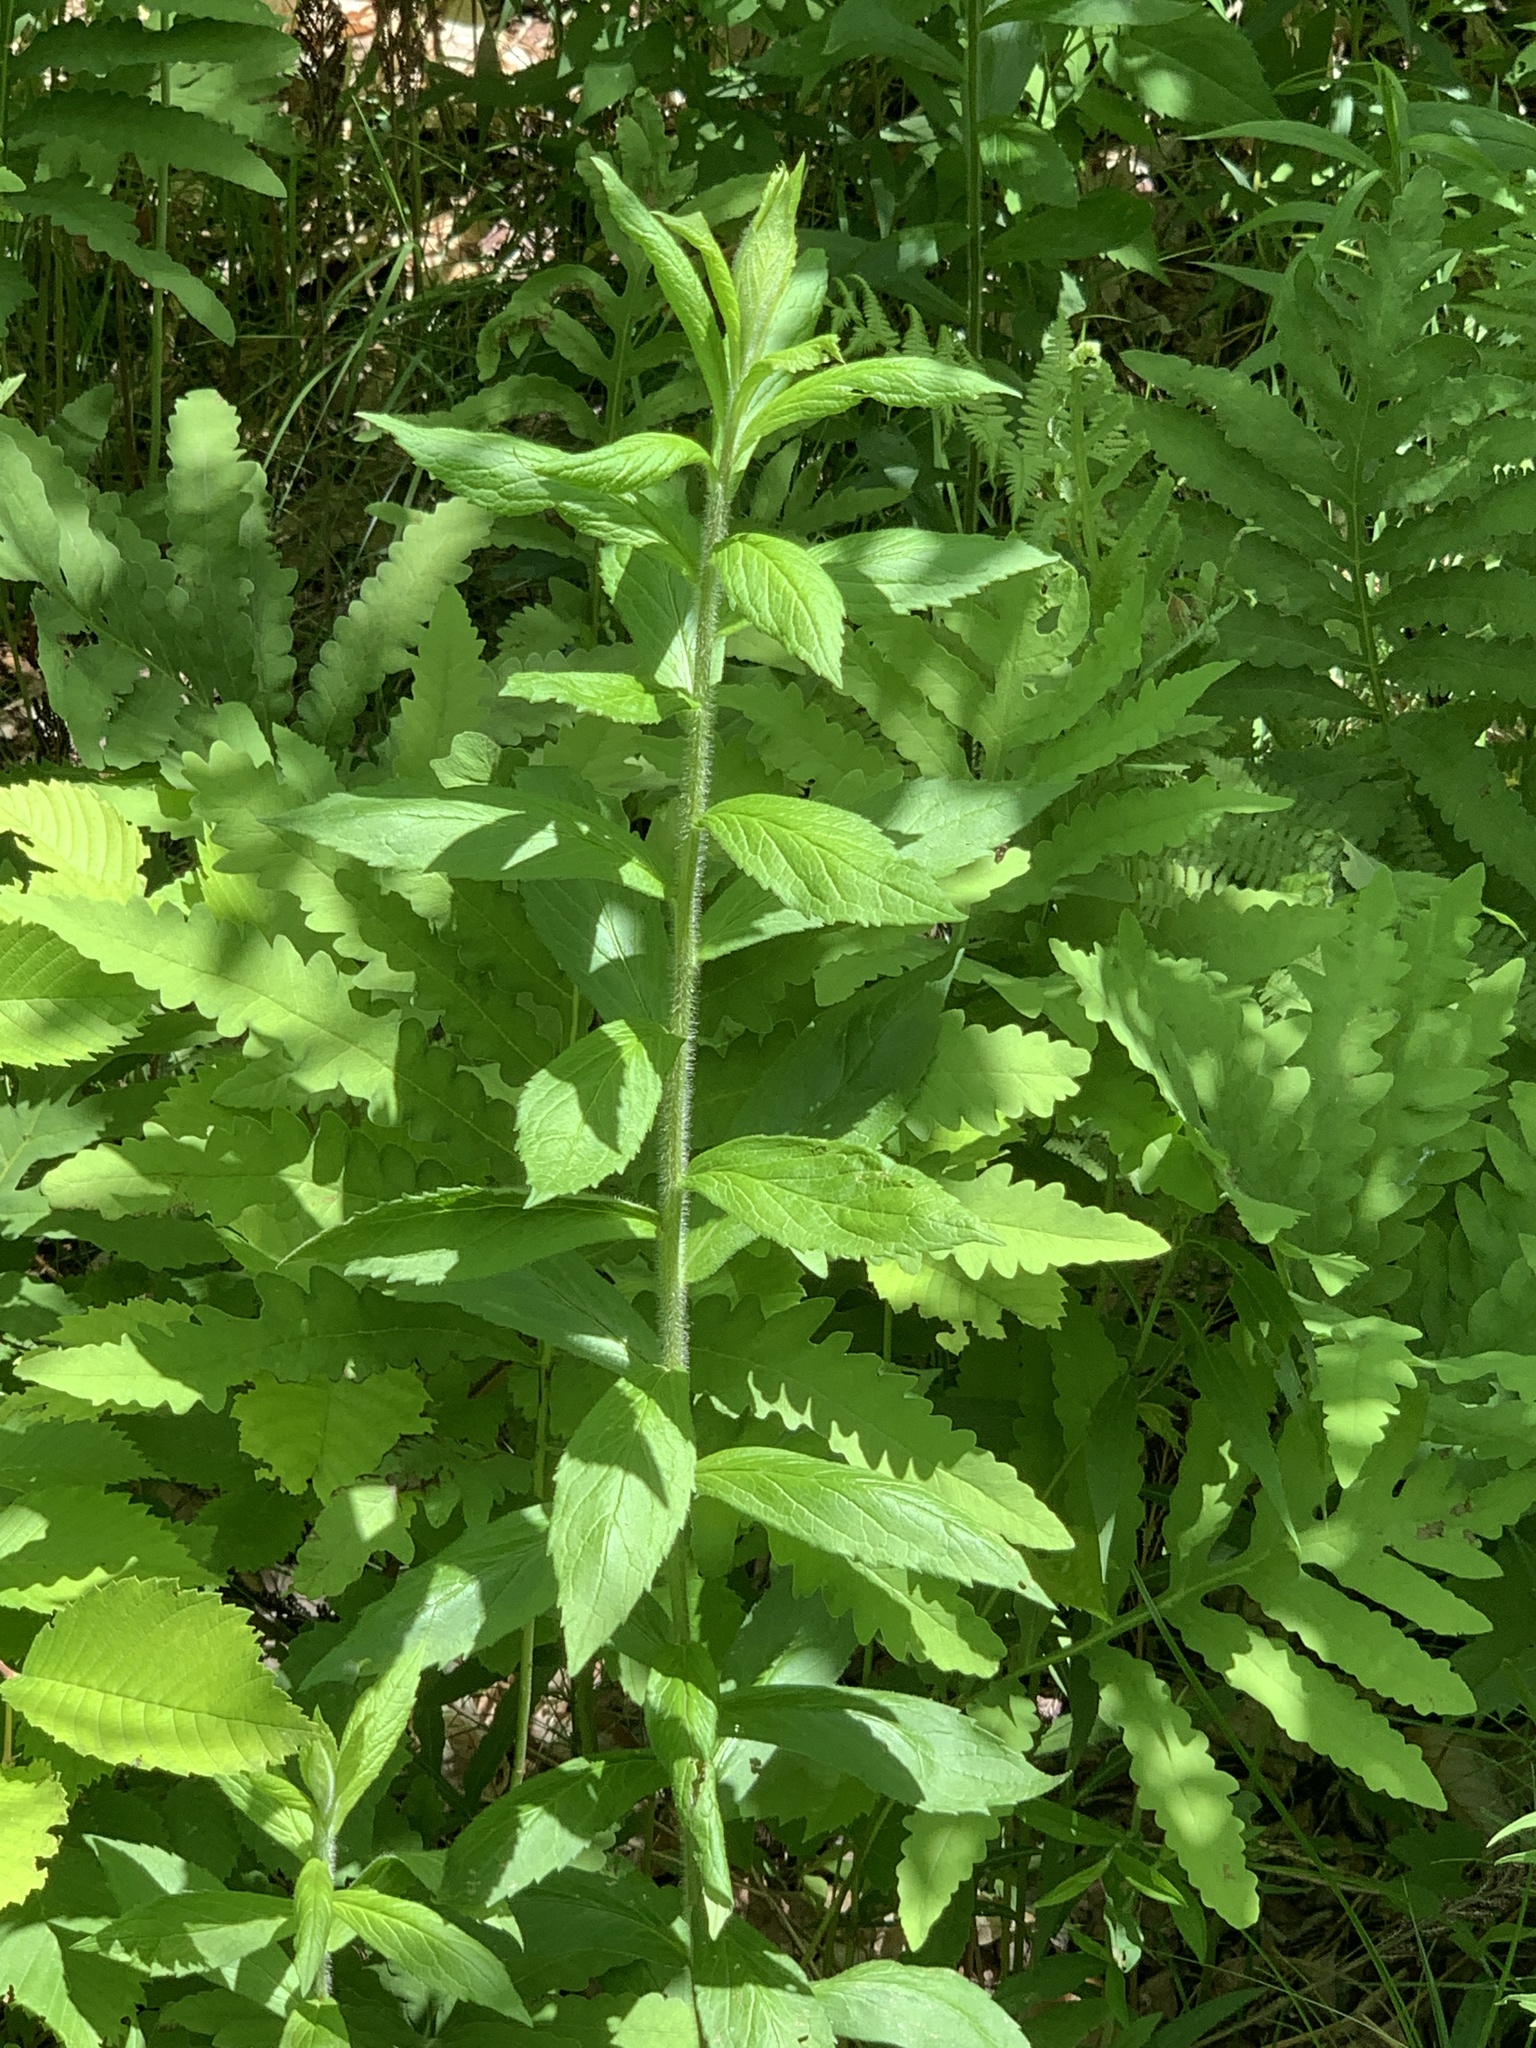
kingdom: Plantae
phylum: Tracheophyta
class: Magnoliopsida
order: Asterales
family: Asteraceae
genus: Solidago
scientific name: Solidago rugosa
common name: Rough-stemmed goldenrod
